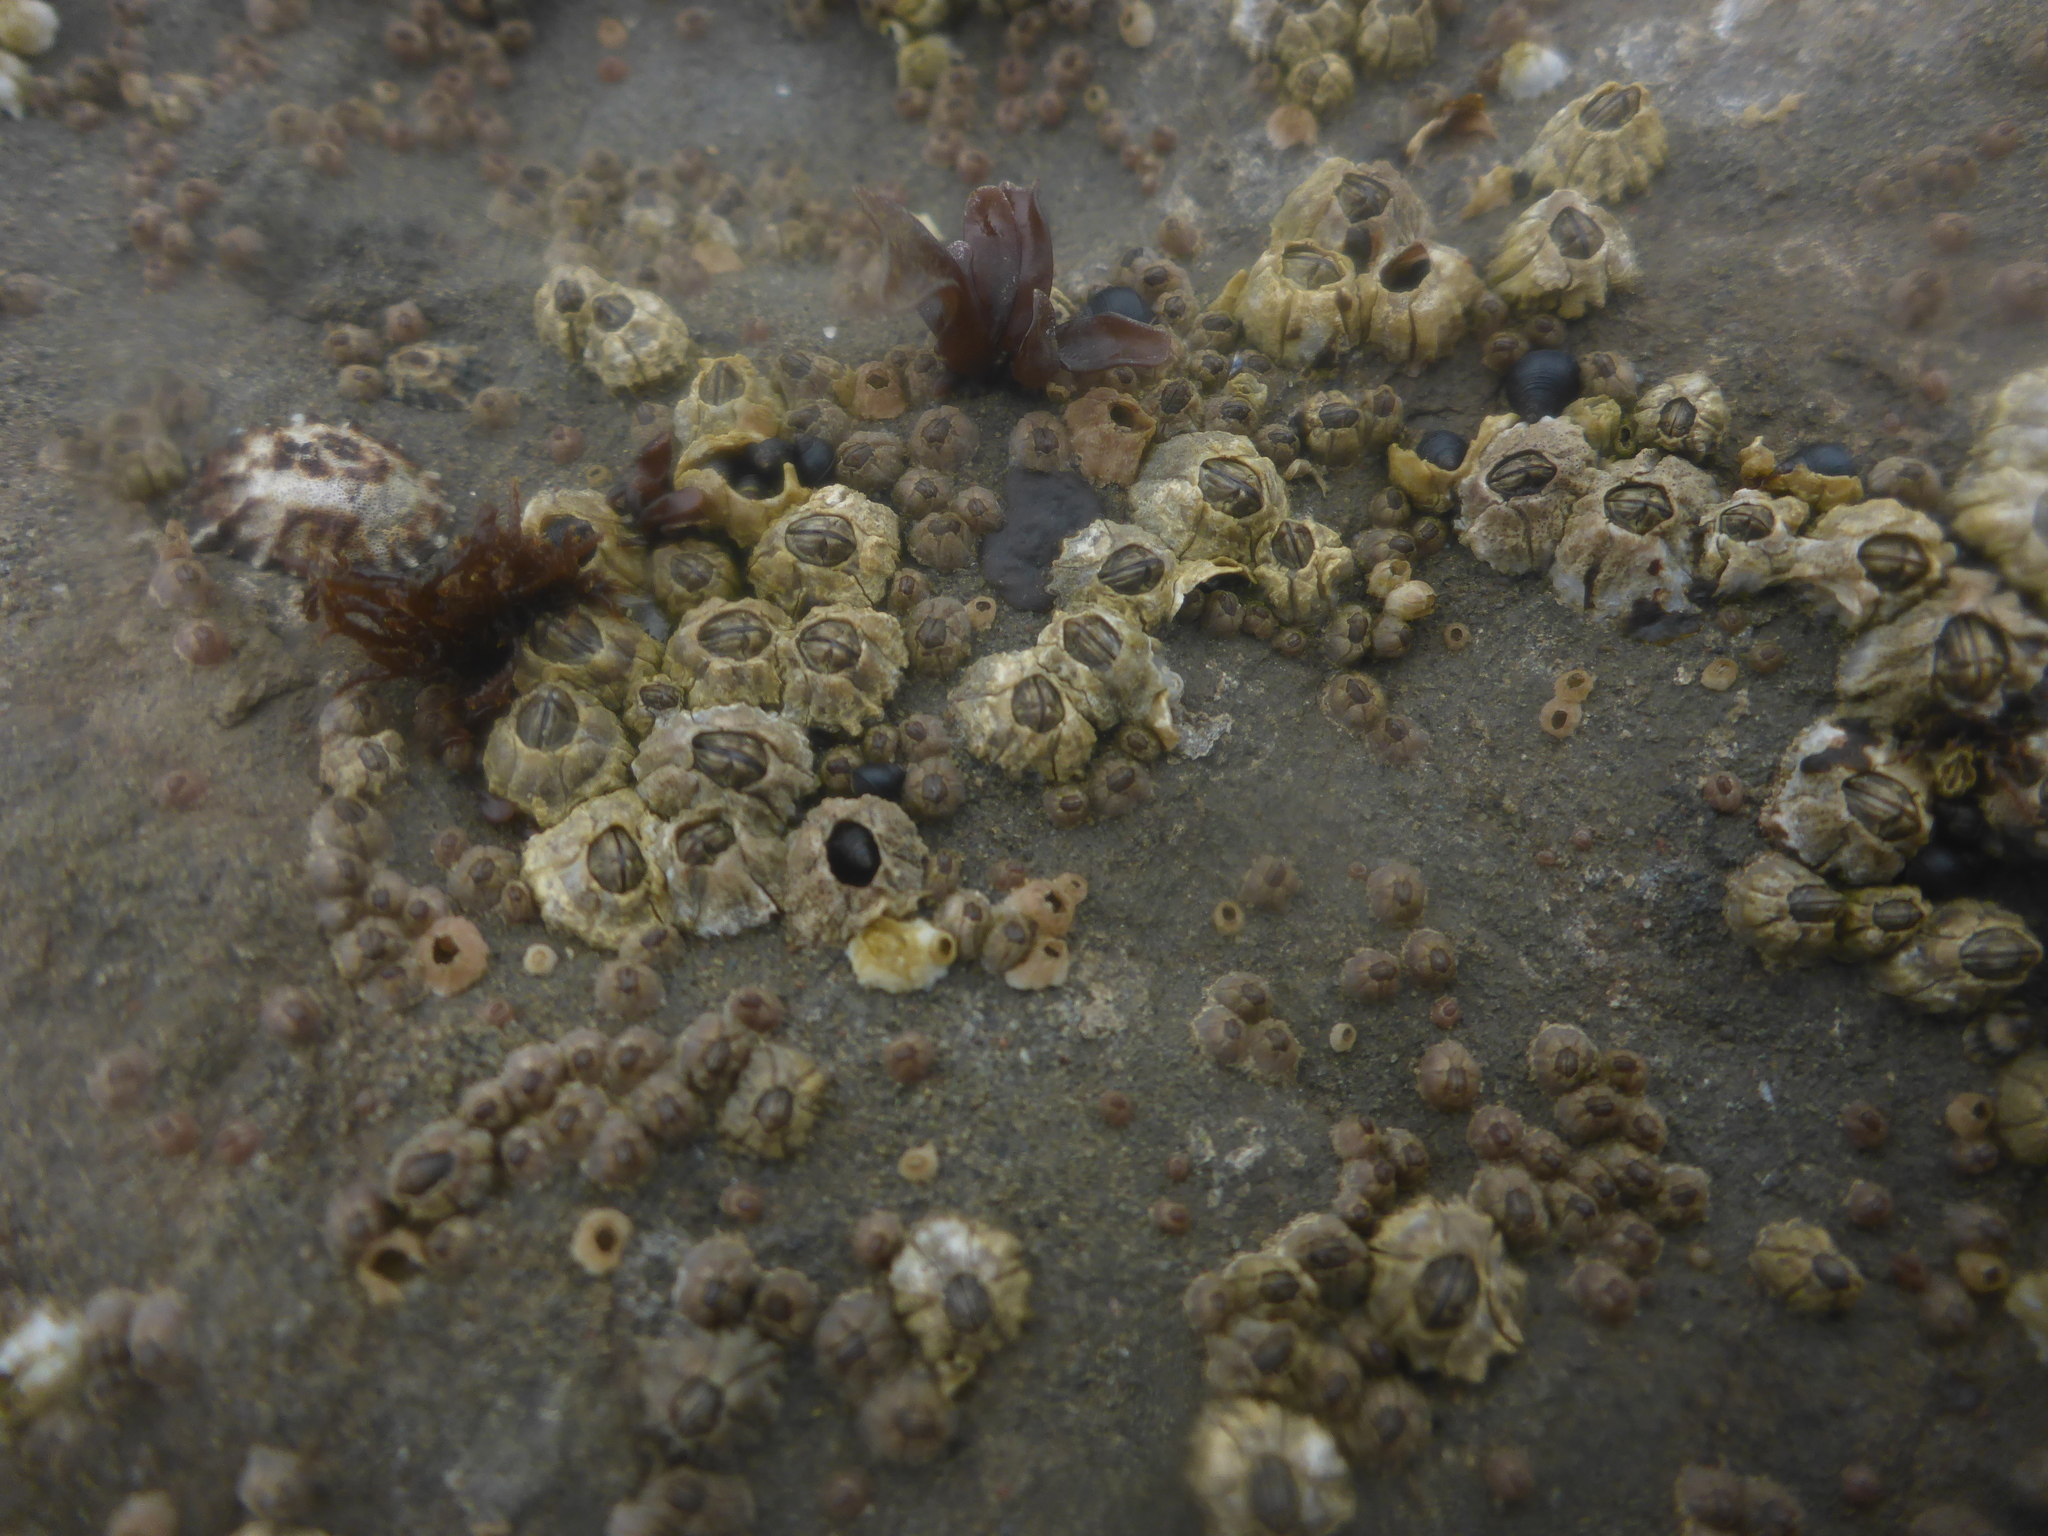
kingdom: Animalia
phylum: Arthropoda
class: Maxillopoda
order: Sessilia
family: Chthamalidae
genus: Chthamalus
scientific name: Chthamalus dalli
